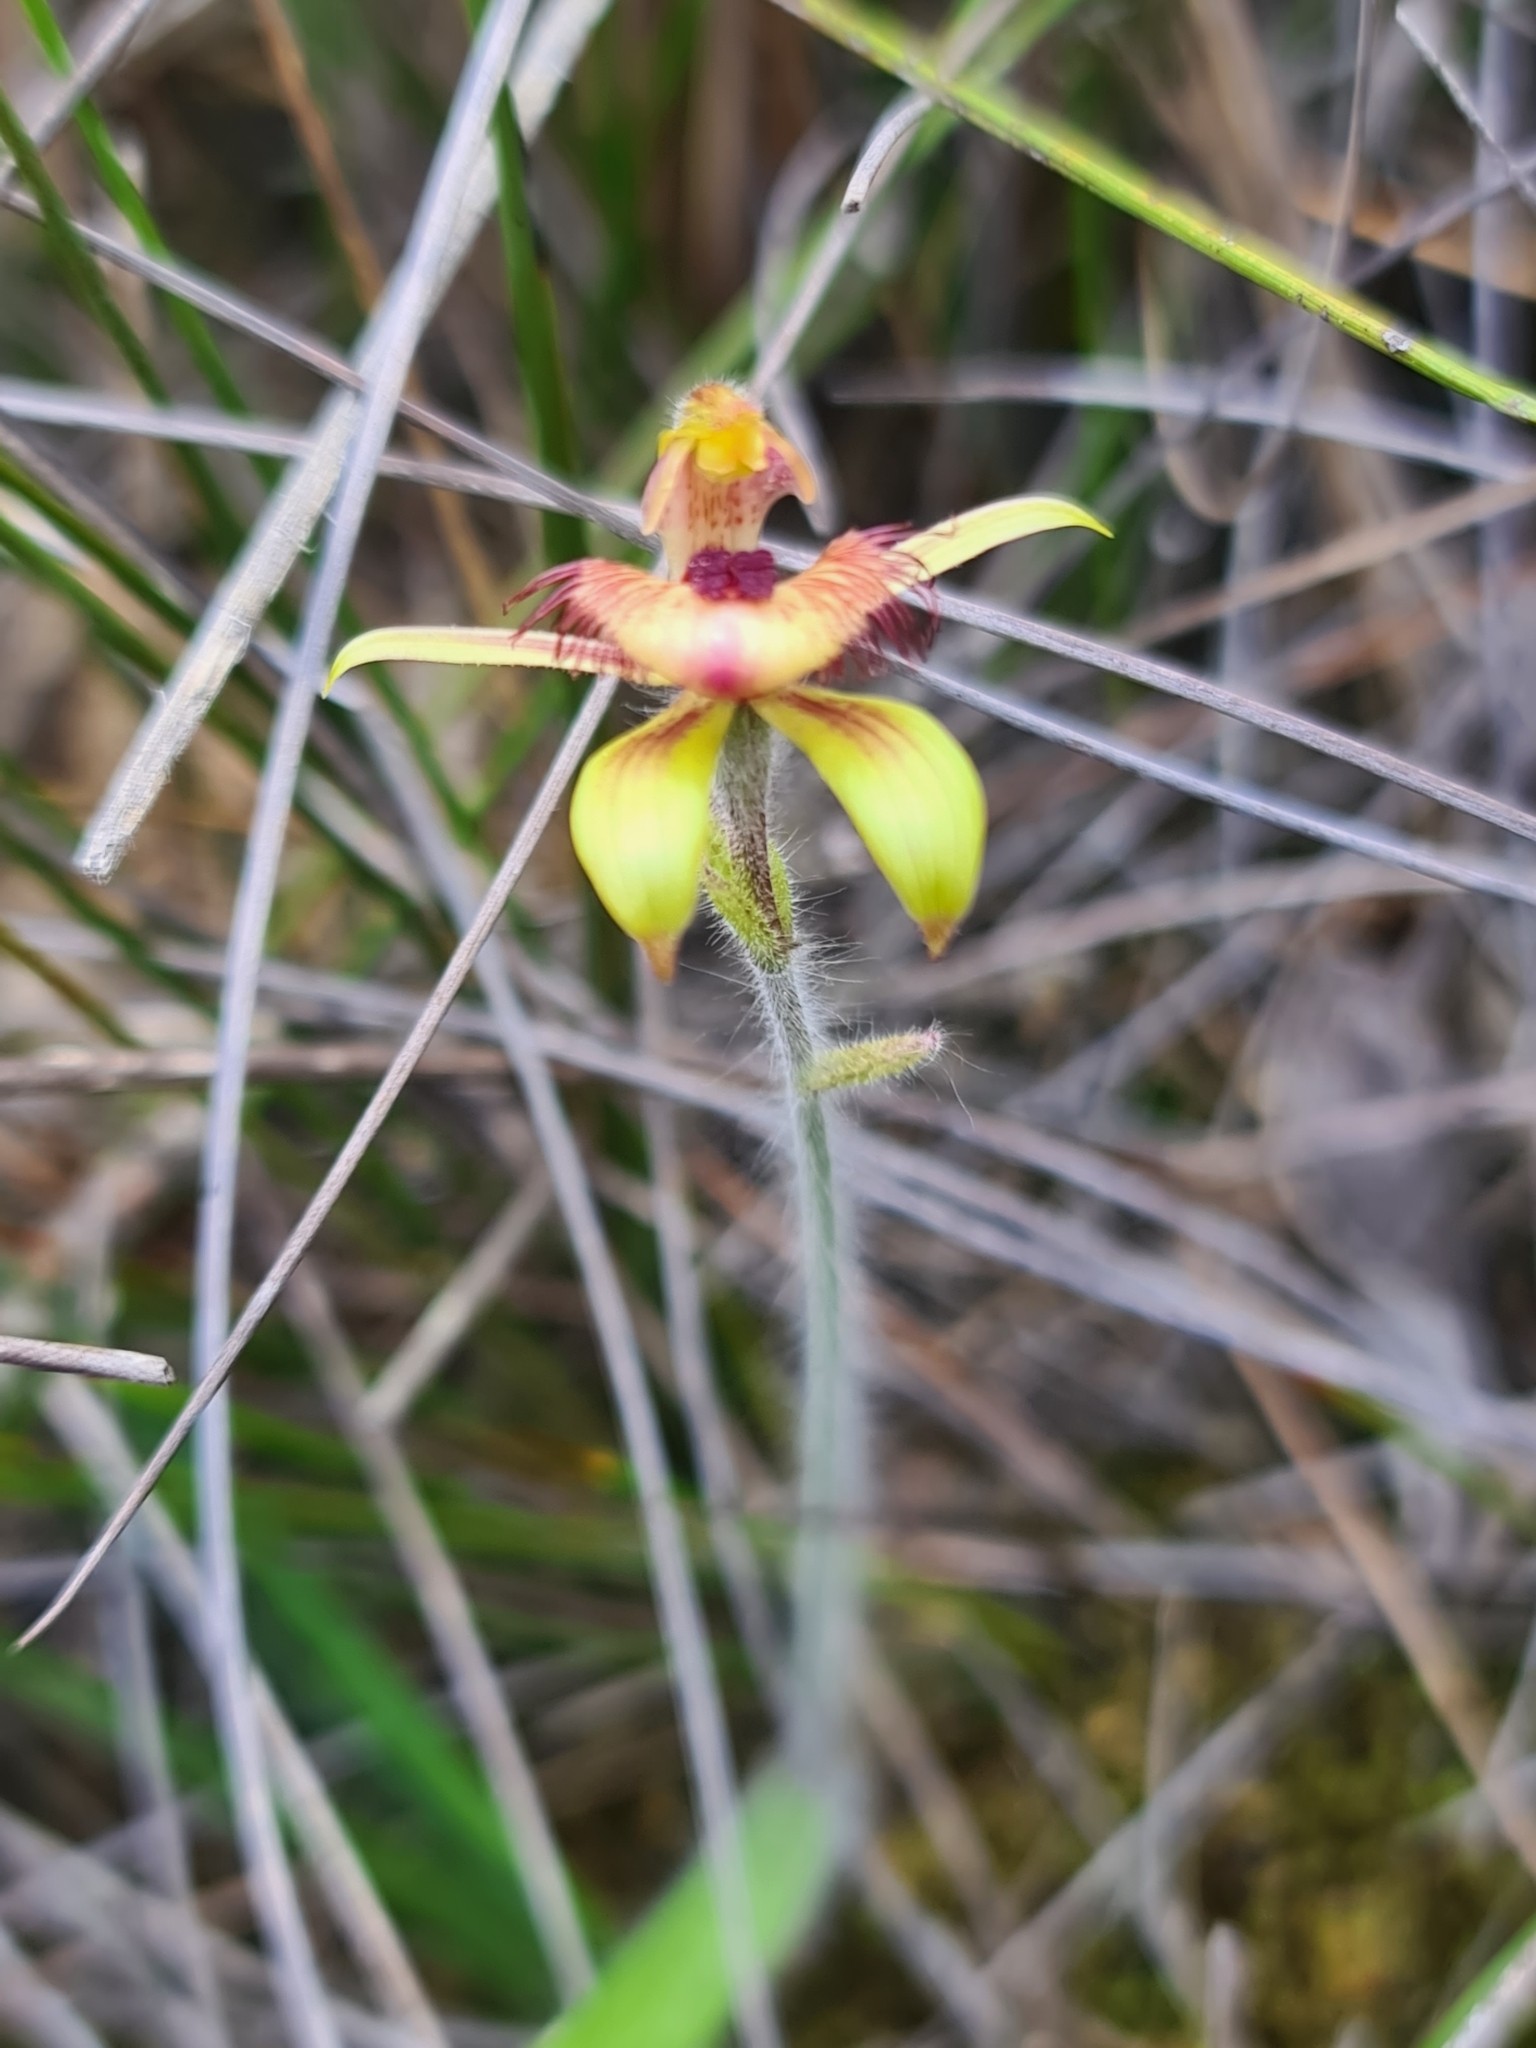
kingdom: Plantae
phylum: Tracheophyta
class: Liliopsida
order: Asparagales
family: Orchidaceae
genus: Caladenia
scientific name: Caladenia discoidea
